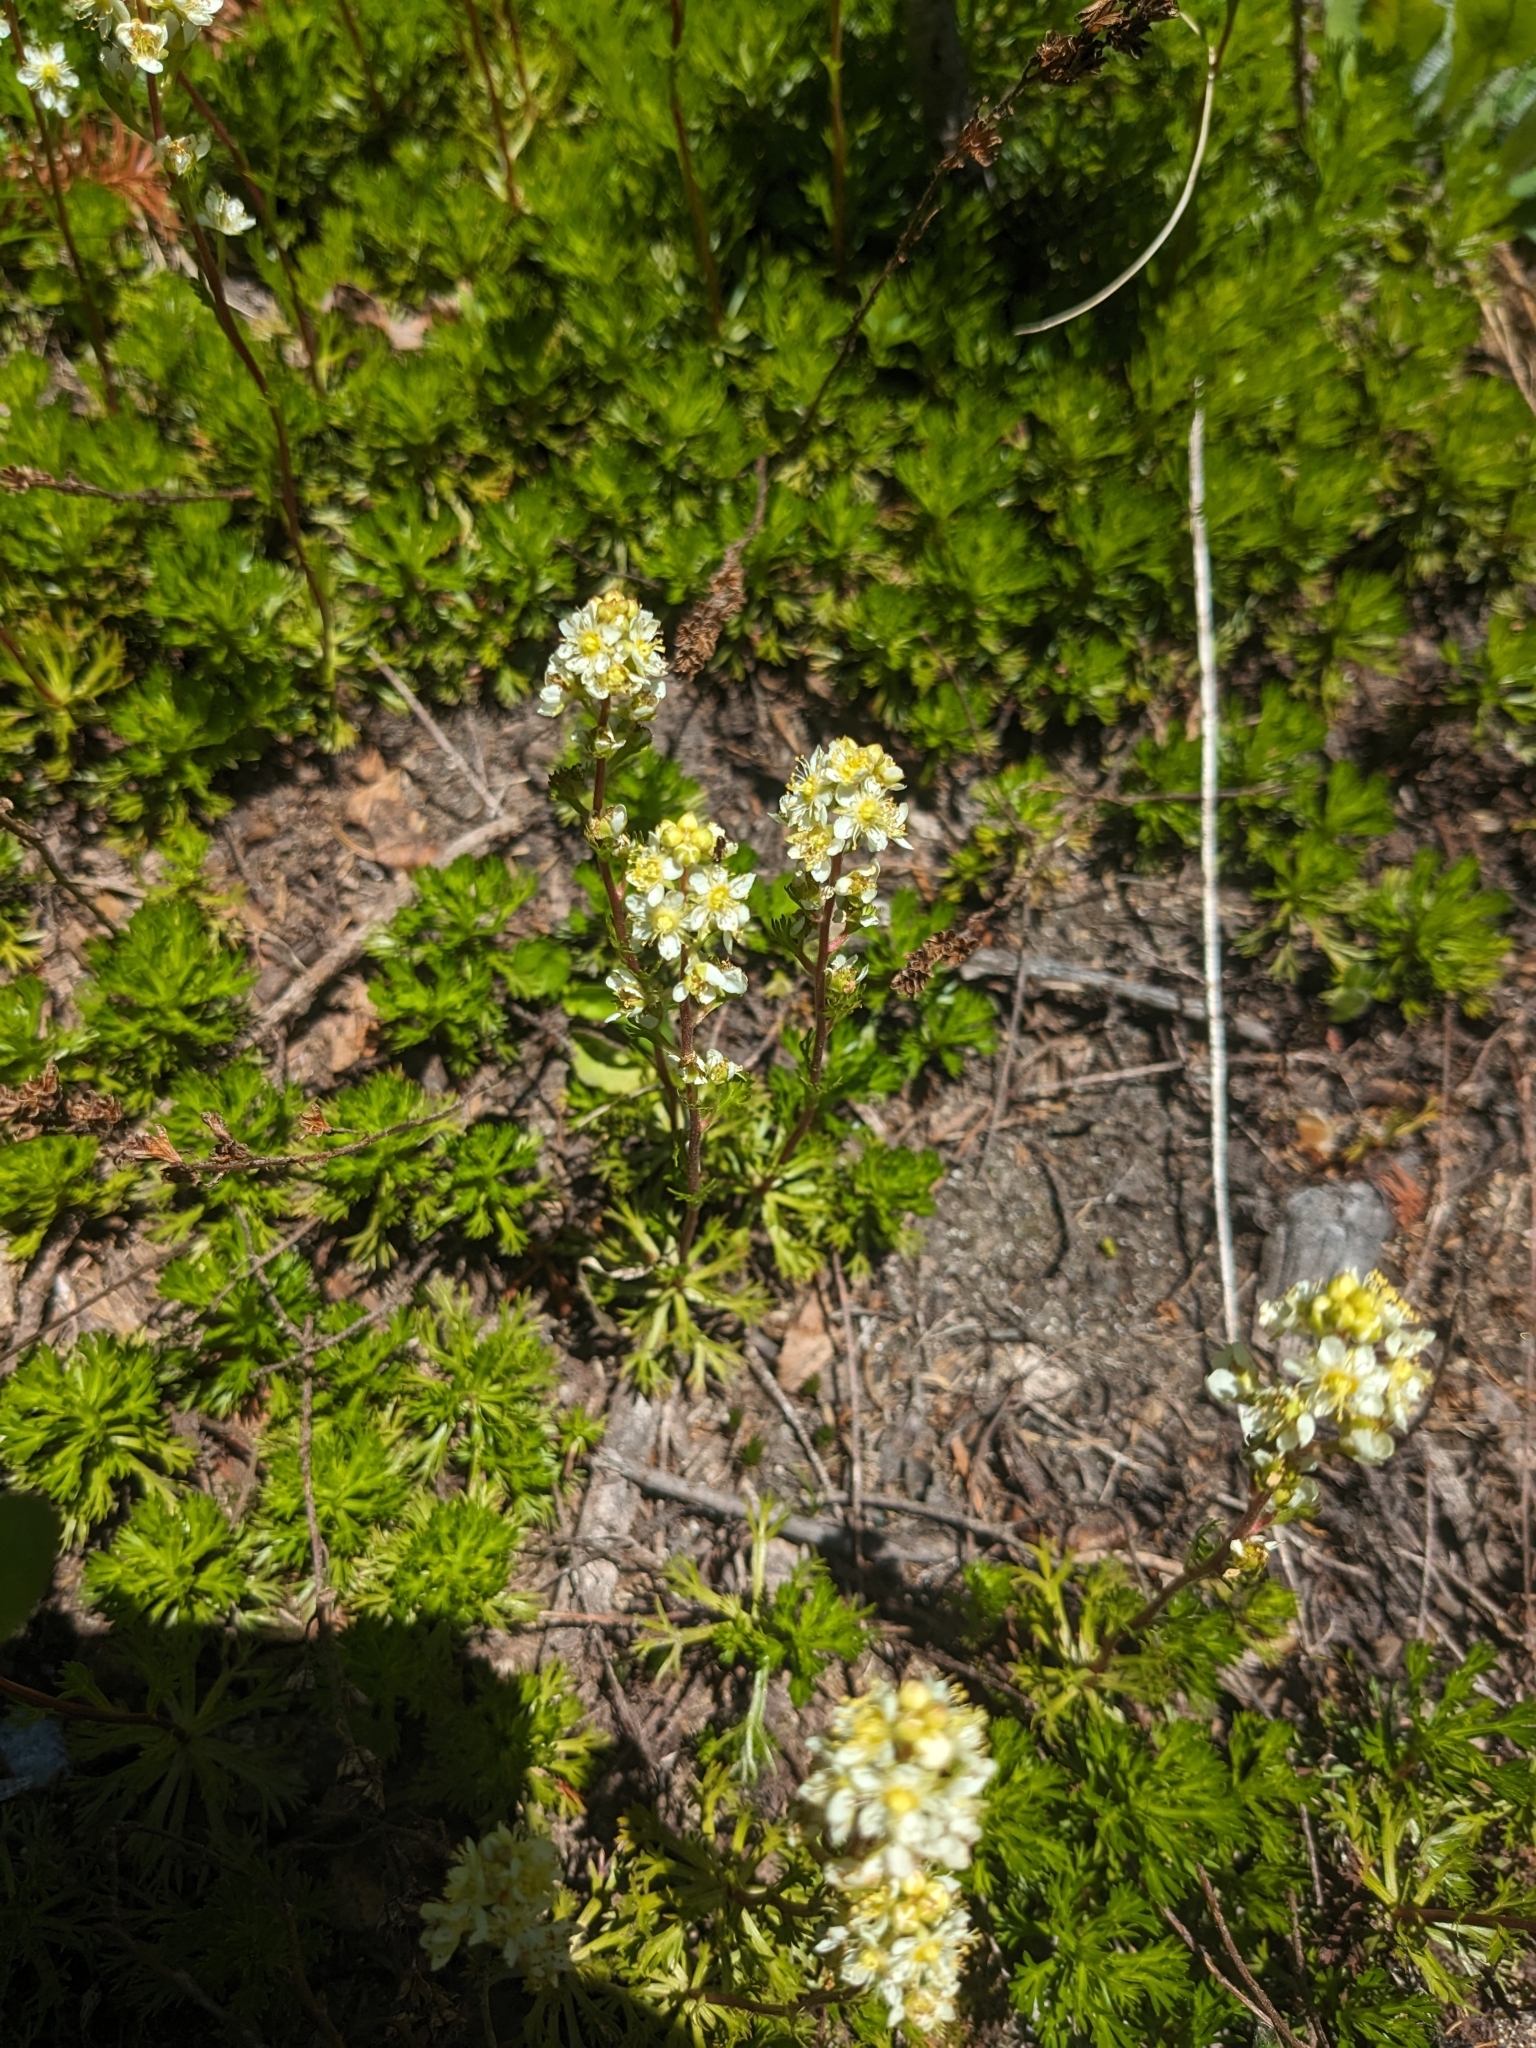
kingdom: Plantae
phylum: Tracheophyta
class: Magnoliopsida
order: Rosales
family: Rosaceae
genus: Luetkea
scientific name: Luetkea pectinata
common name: Partridgefoot
